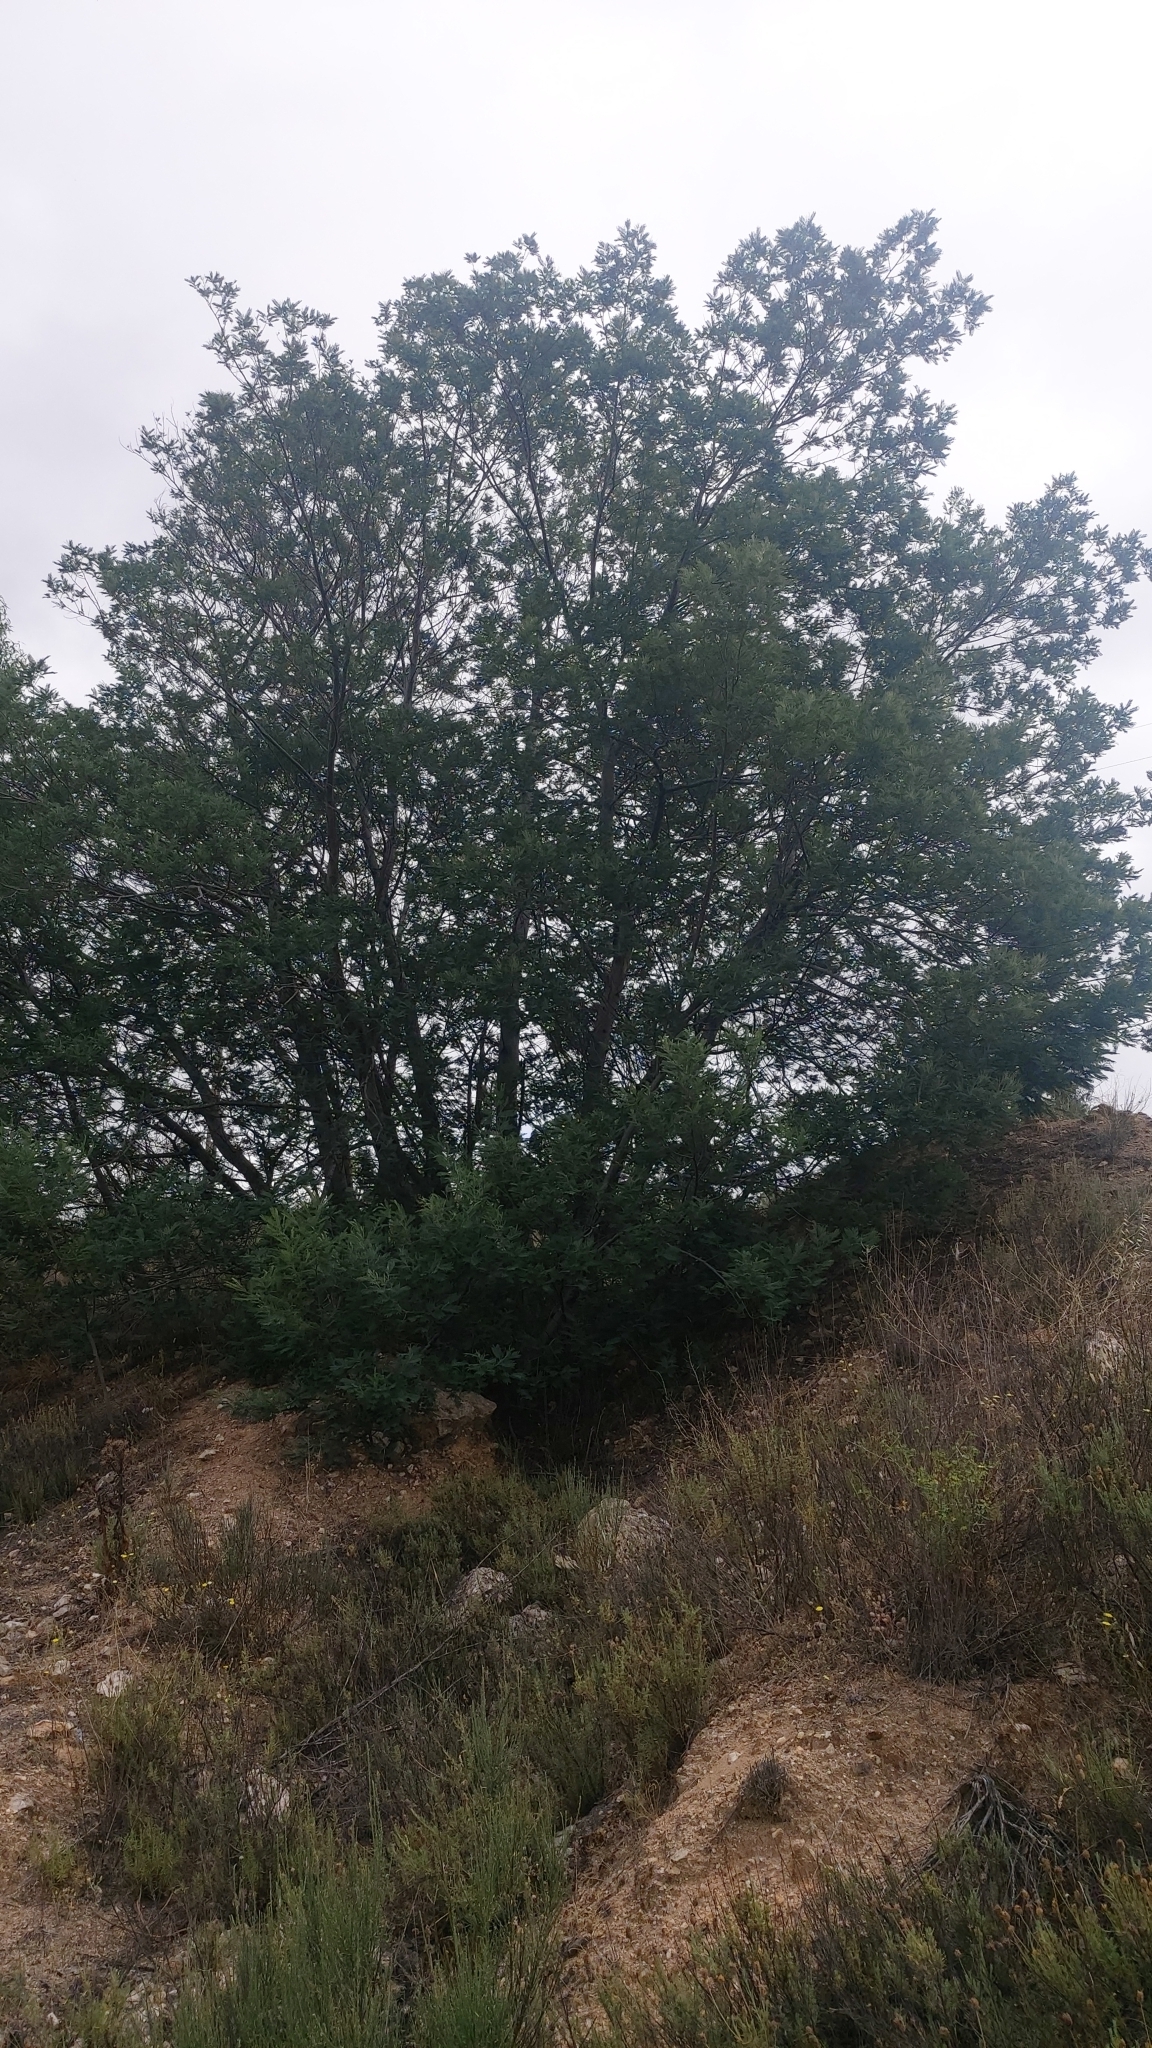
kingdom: Plantae
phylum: Tracheophyta
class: Magnoliopsida
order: Fabales
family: Fabaceae
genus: Acacia
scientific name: Acacia dealbata
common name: Silver wattle
